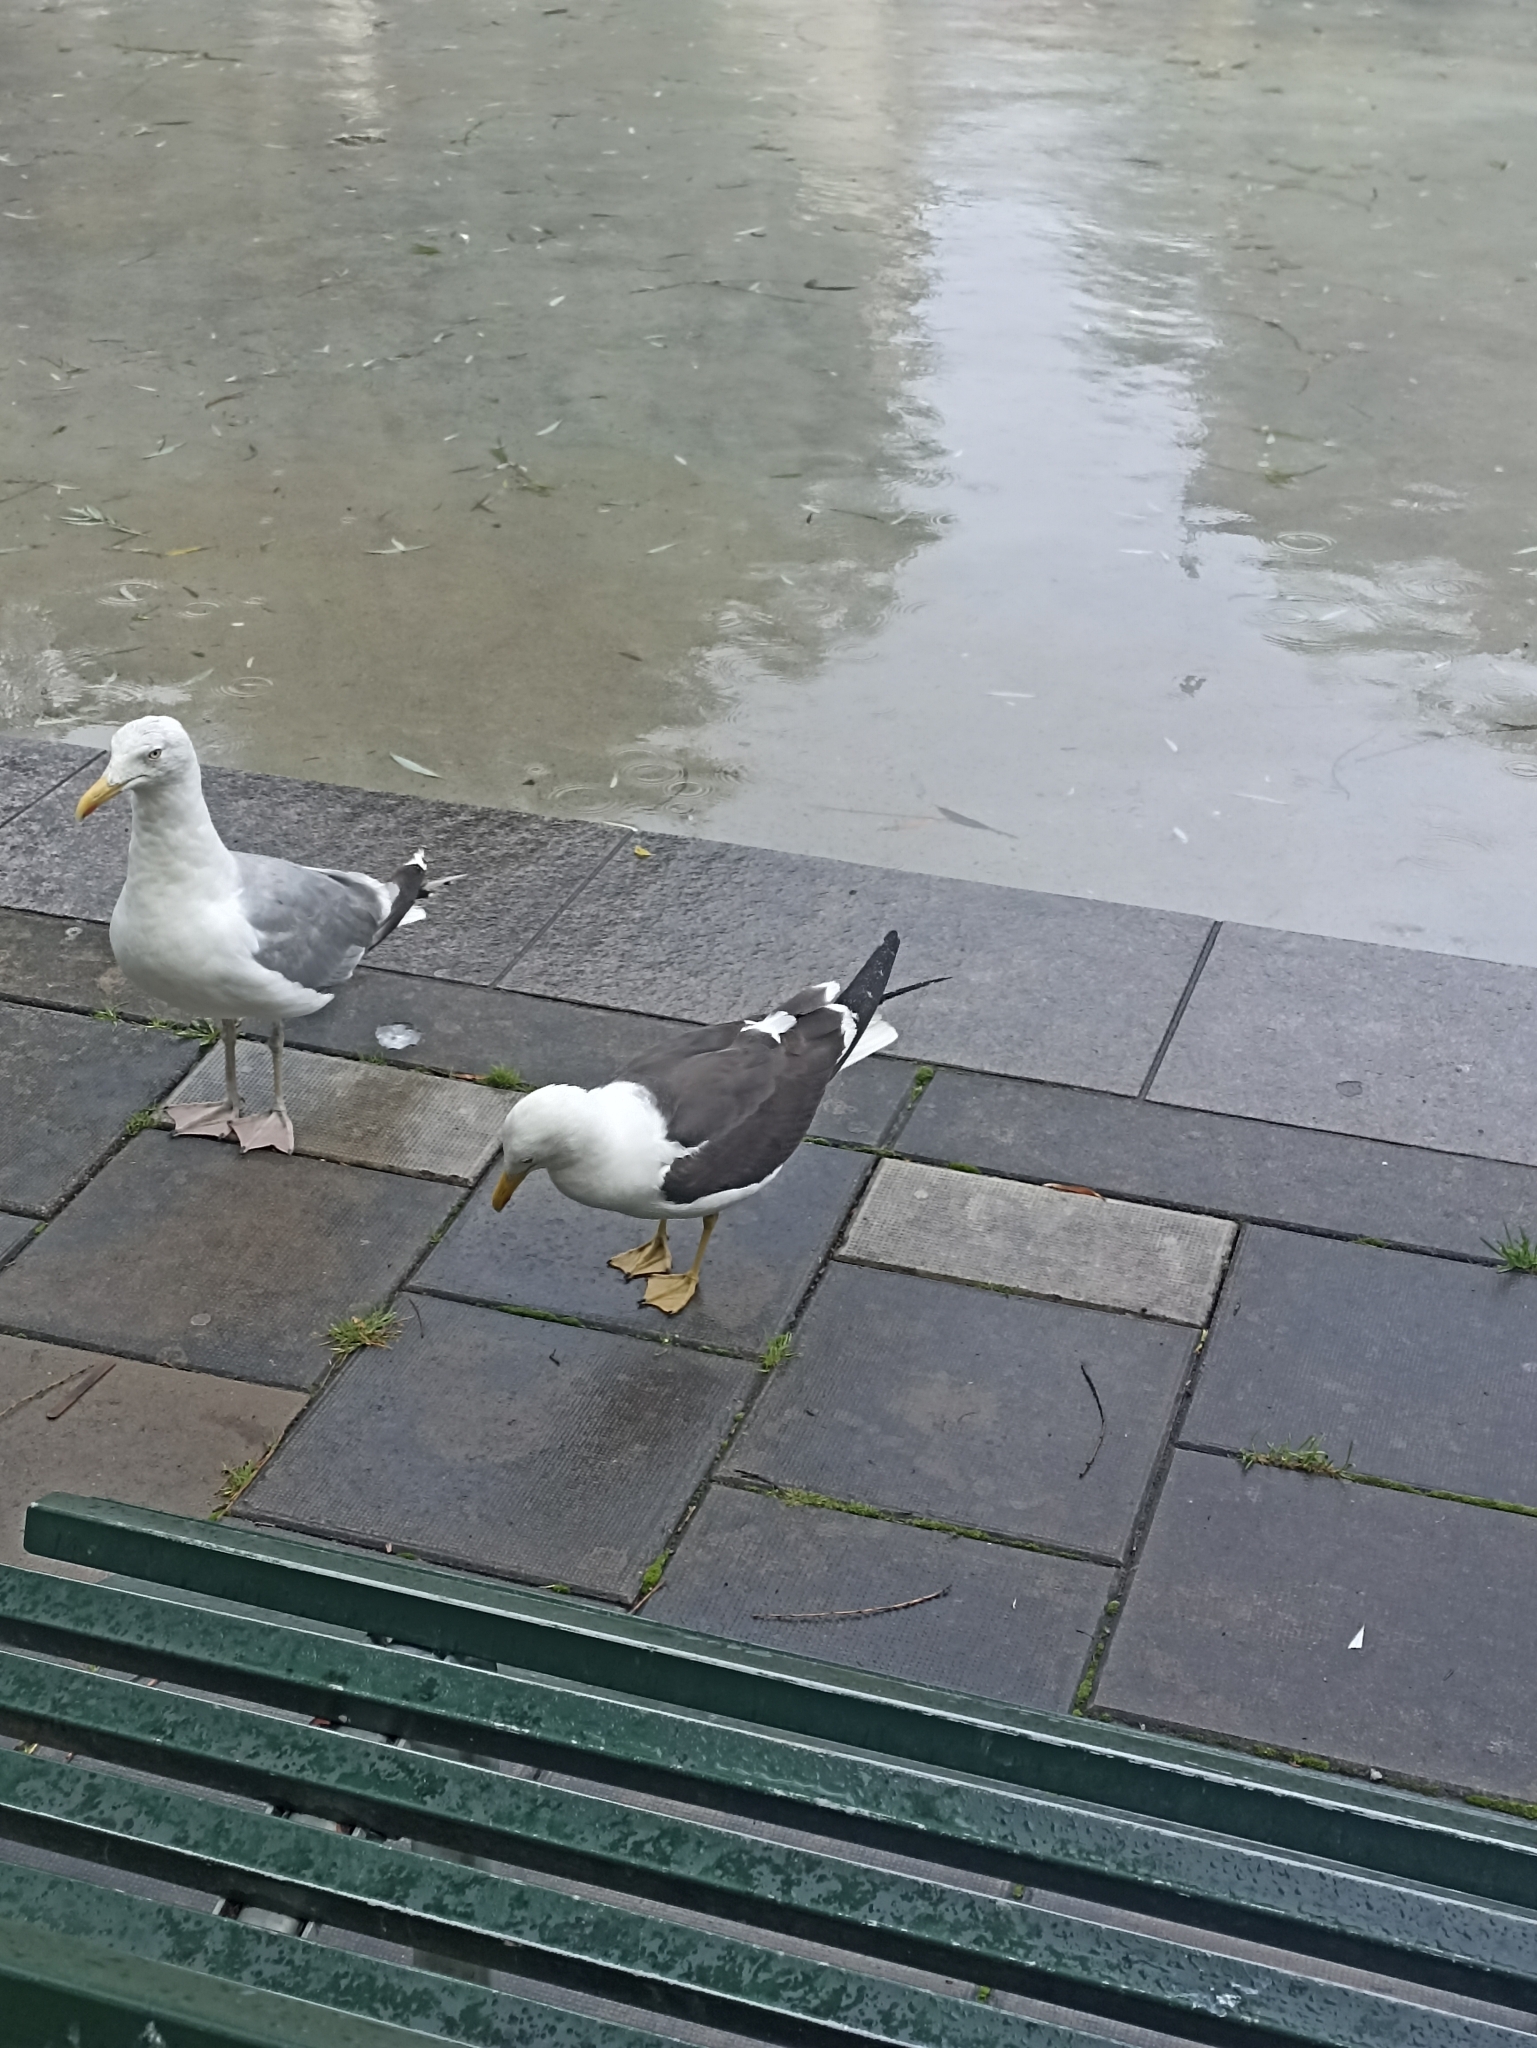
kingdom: Animalia
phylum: Chordata
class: Aves
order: Charadriiformes
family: Laridae
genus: Larus
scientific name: Larus fuscus
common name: Lesser black-backed gull
